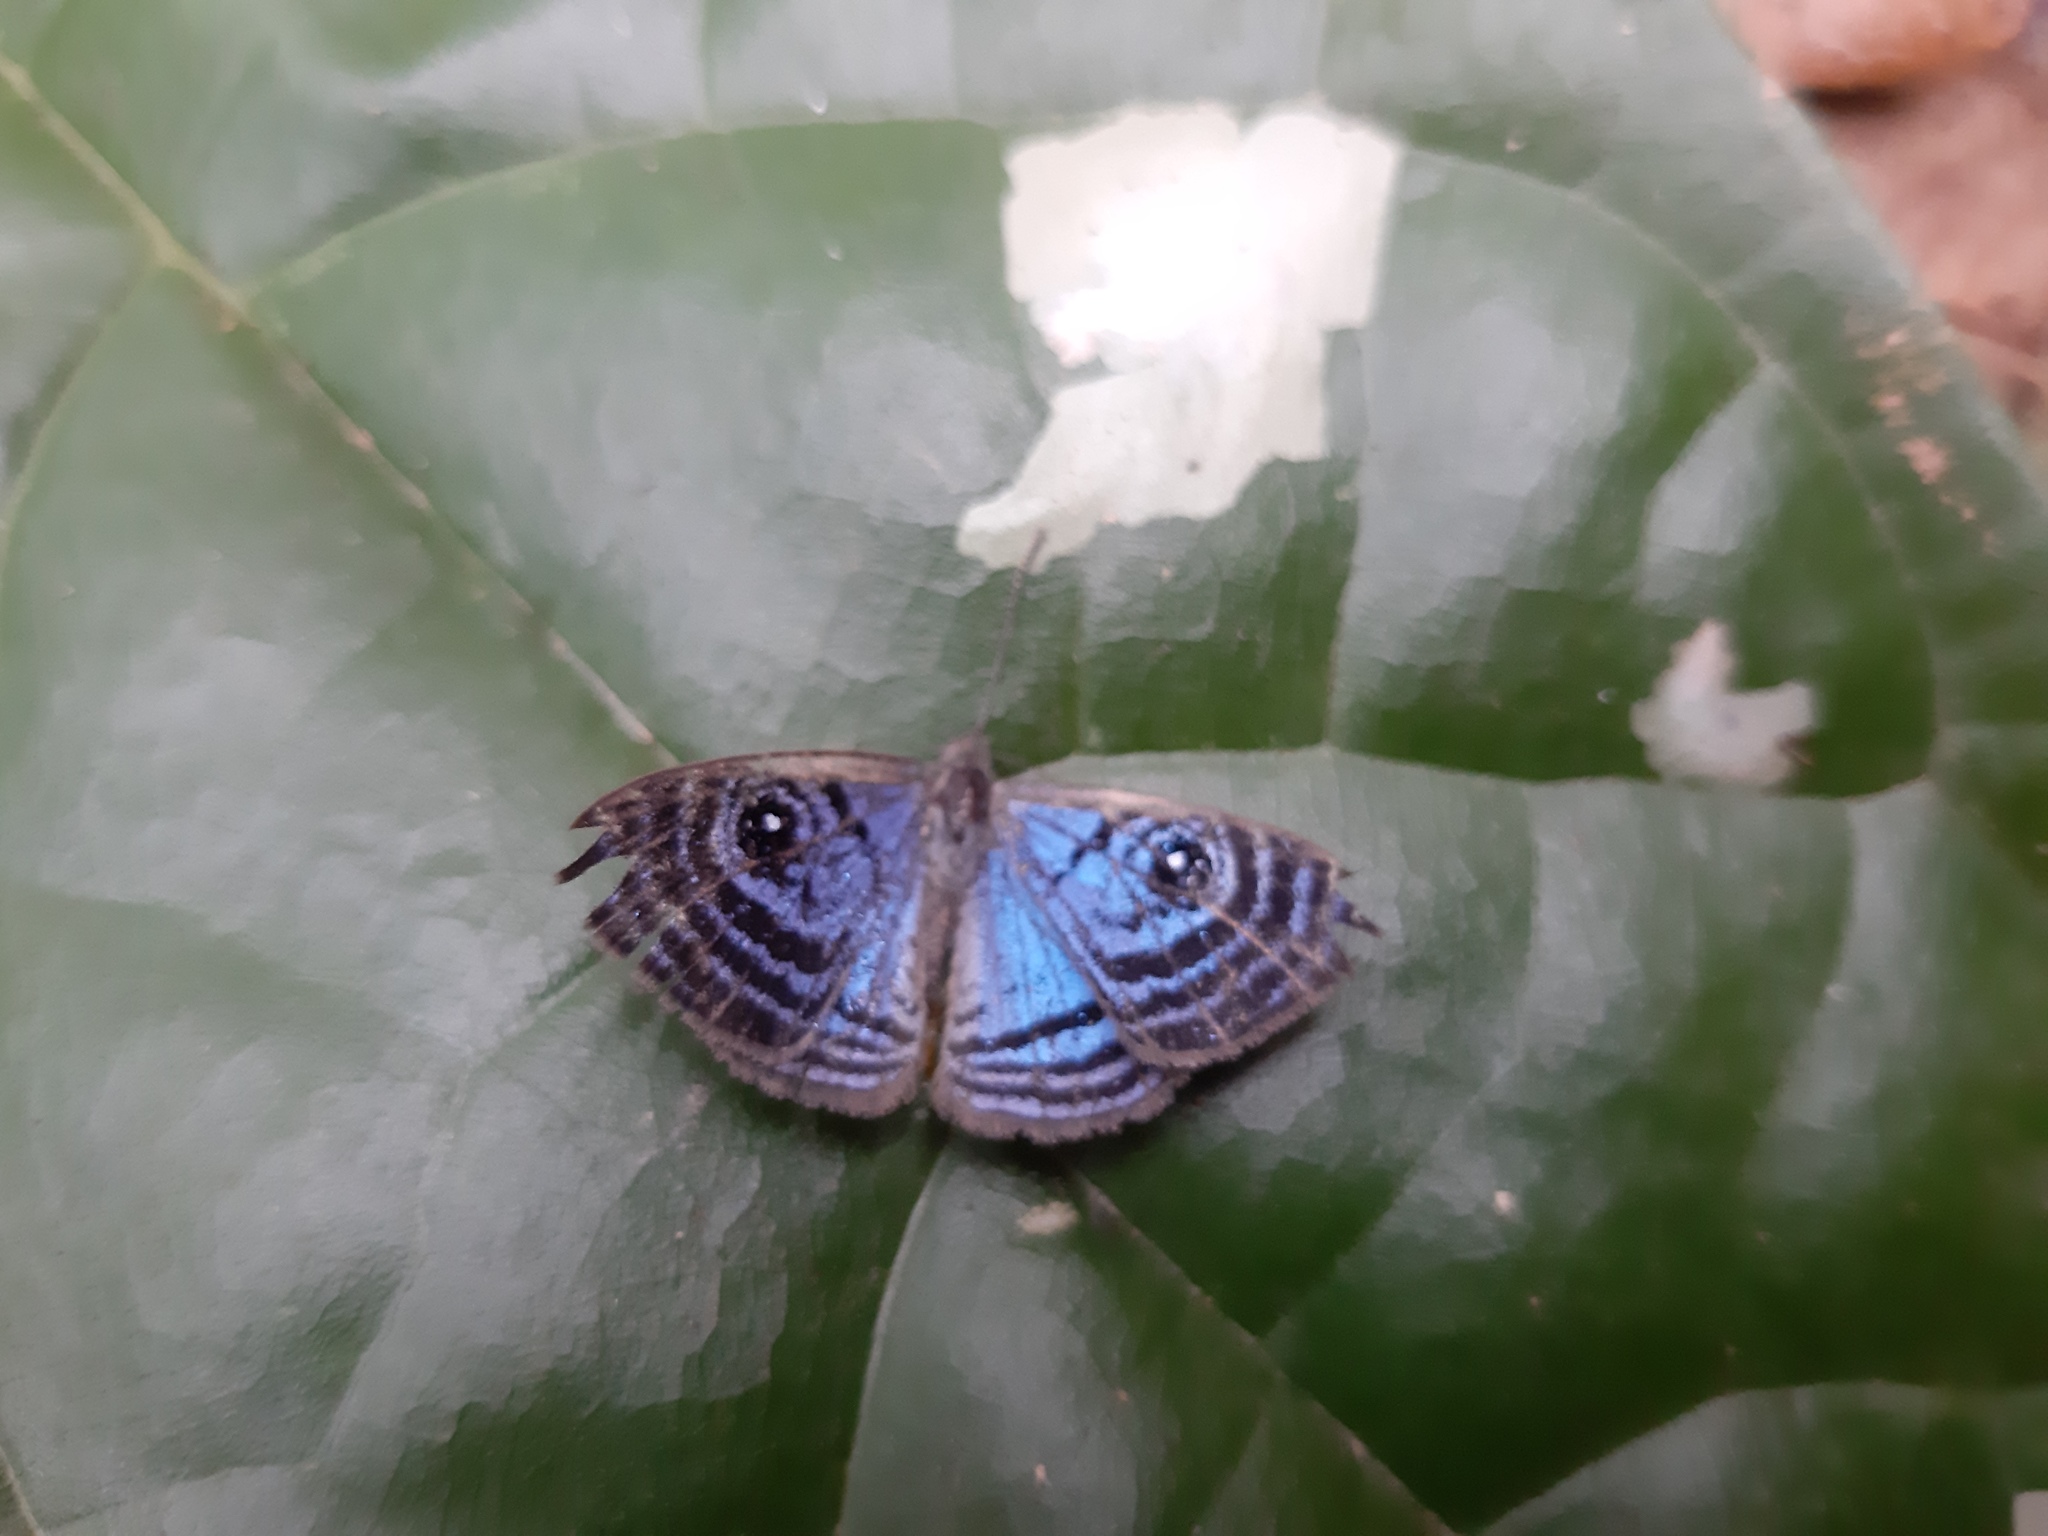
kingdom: Animalia
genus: Mesosemia
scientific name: Mesosemia metura
